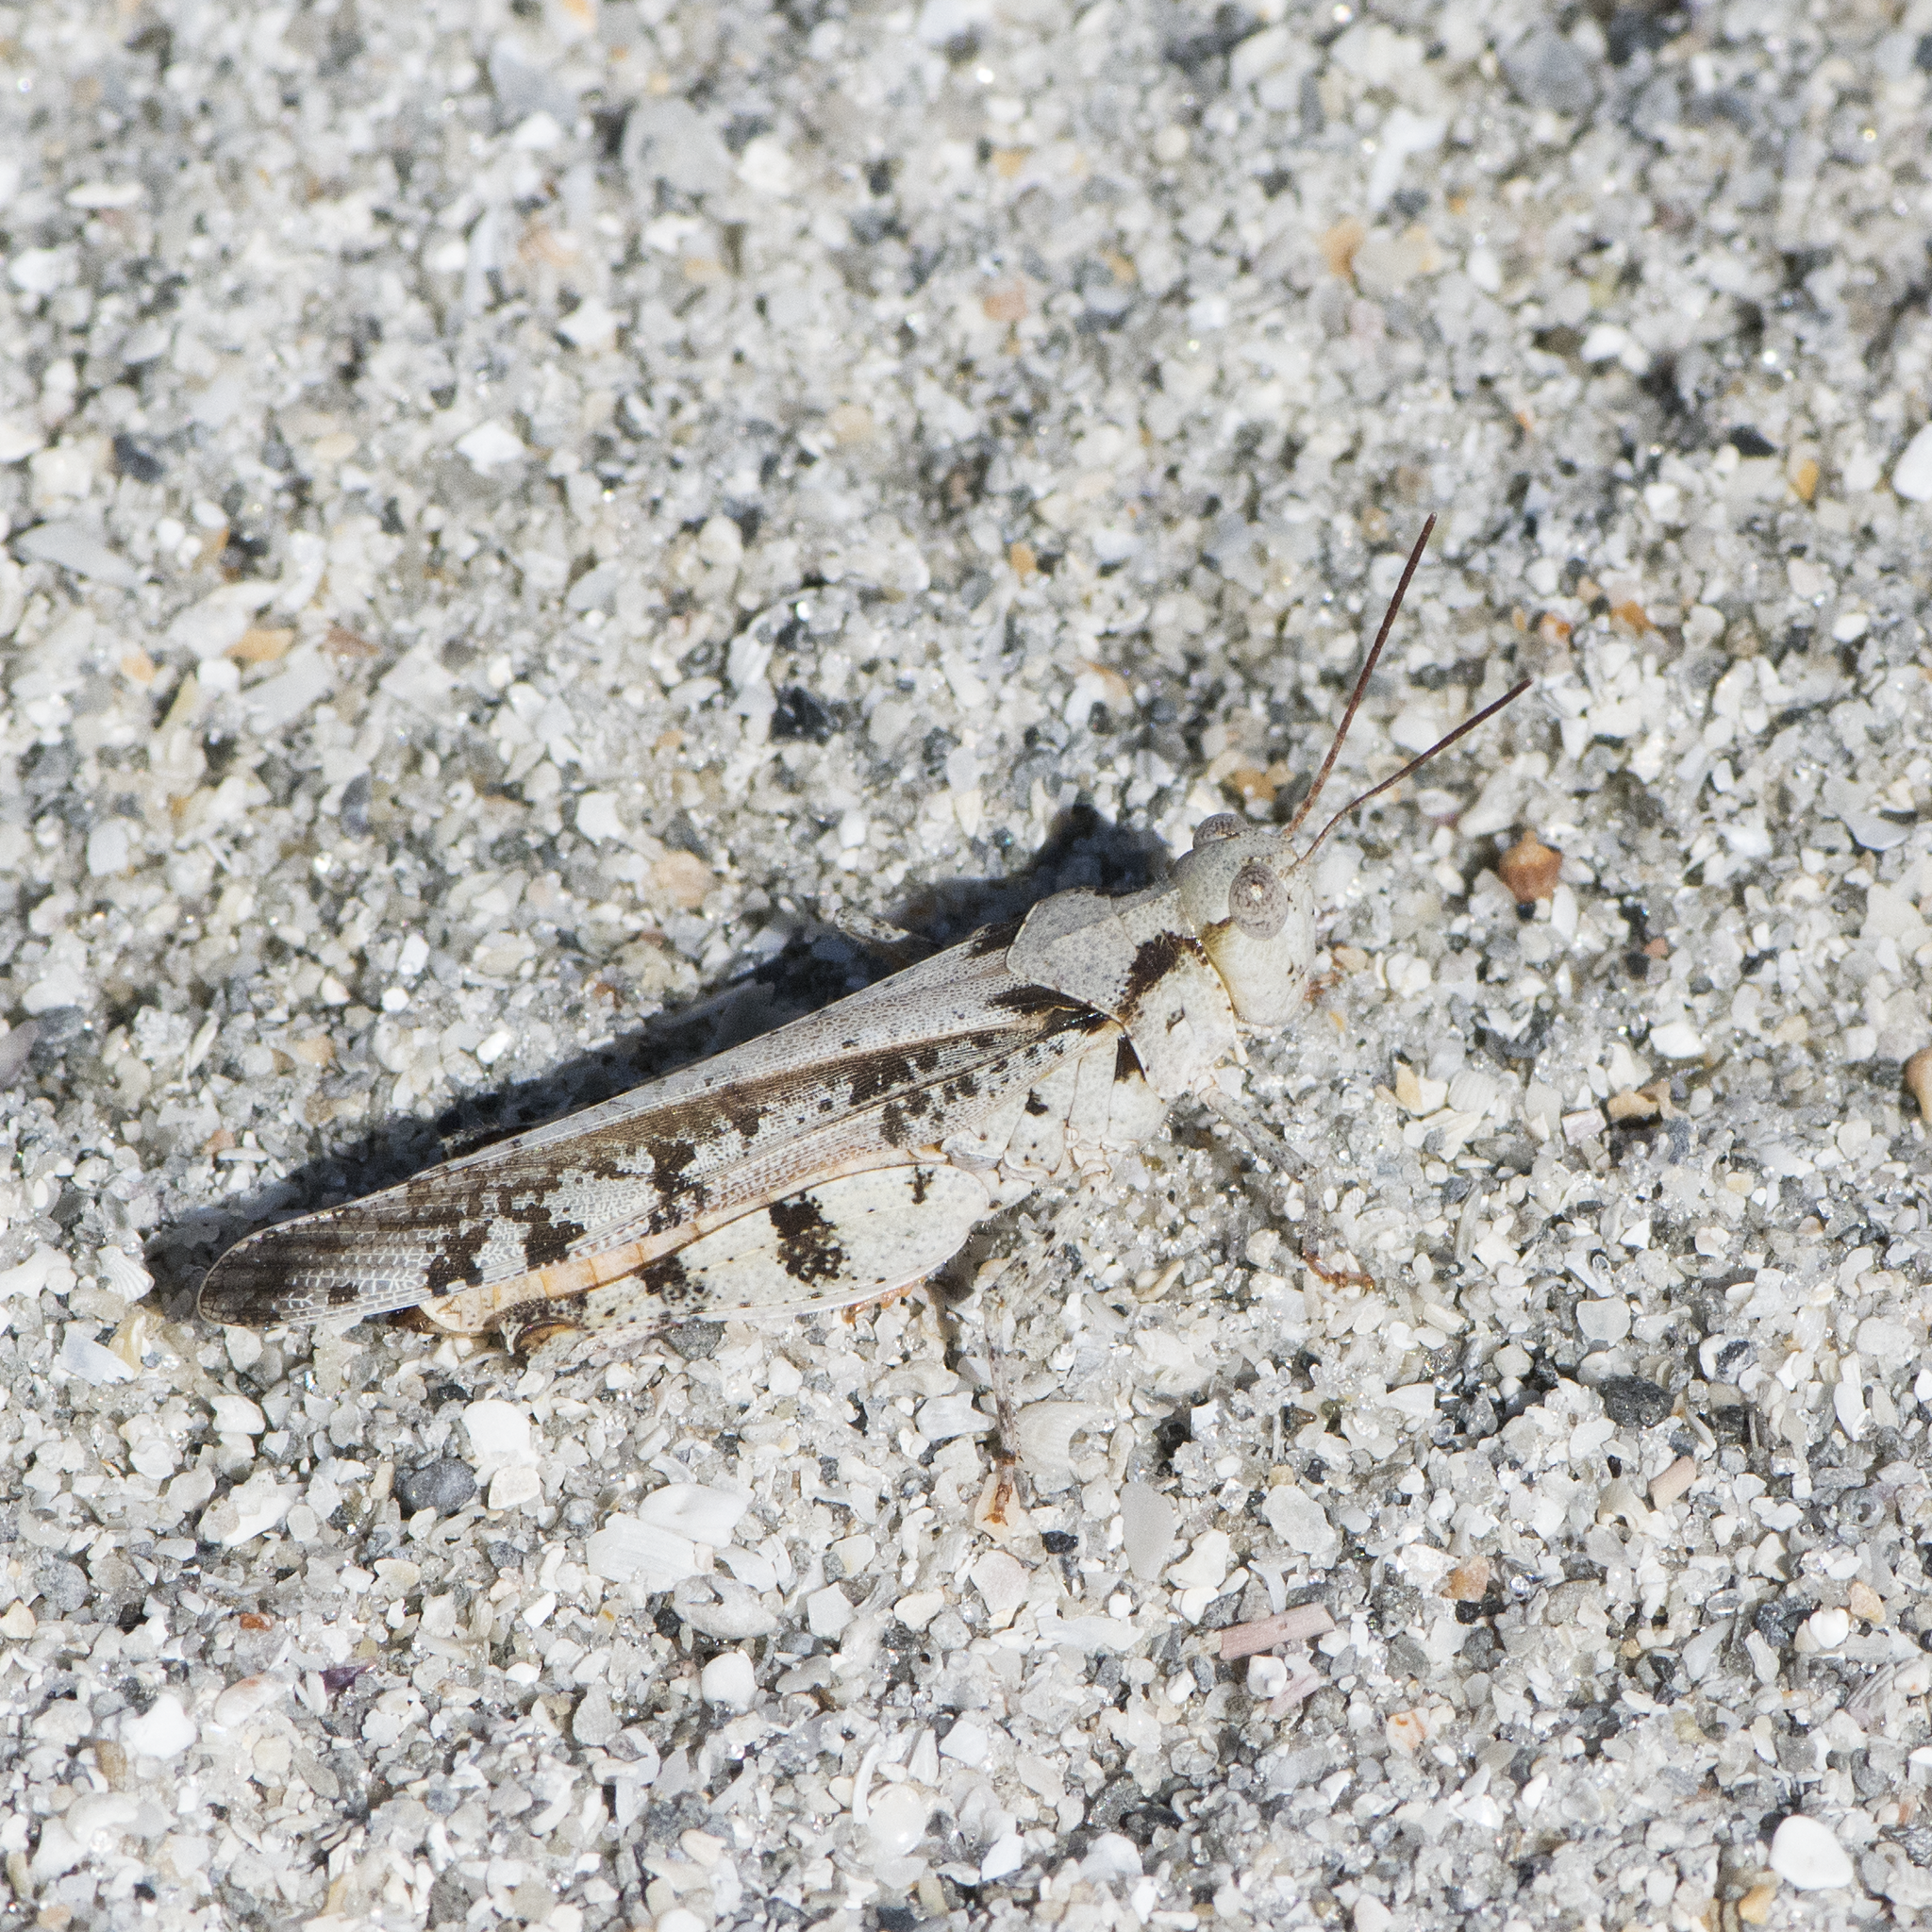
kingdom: Animalia
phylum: Arthropoda
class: Insecta
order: Orthoptera
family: Acrididae
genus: Spharagemon
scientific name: Spharagemon marmoratum
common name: Marbled grasshopper
